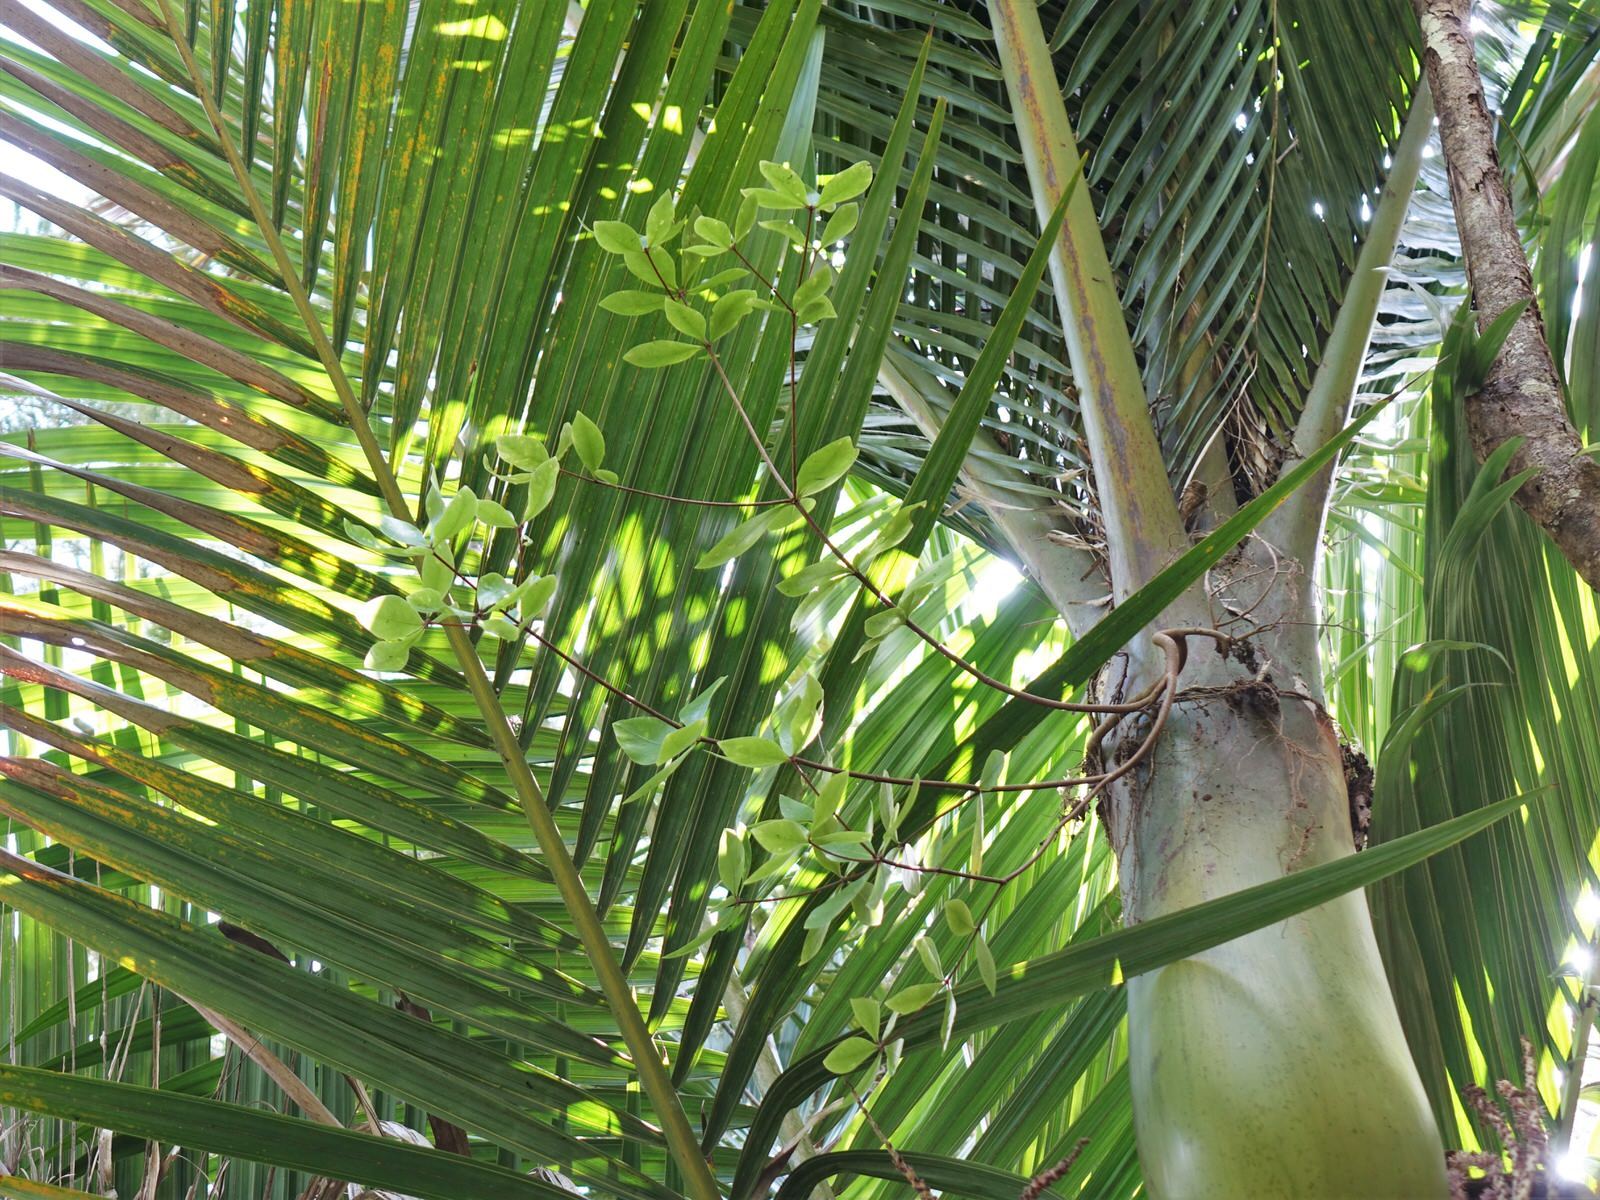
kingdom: Plantae
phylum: Tracheophyta
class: Magnoliopsida
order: Apiales
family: Pittosporaceae
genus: Pittosporum
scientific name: Pittosporum cornifolium
